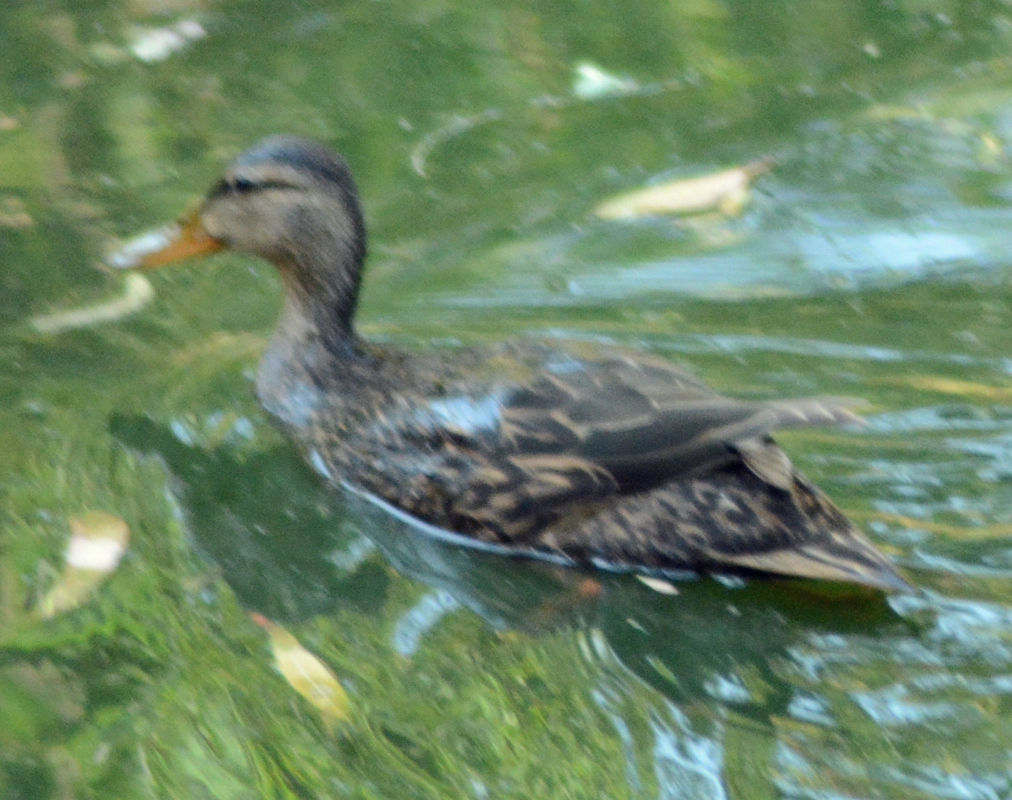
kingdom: Animalia
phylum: Chordata
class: Aves
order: Anseriformes
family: Anatidae
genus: Anas
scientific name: Anas diazi
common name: Mexican duck
